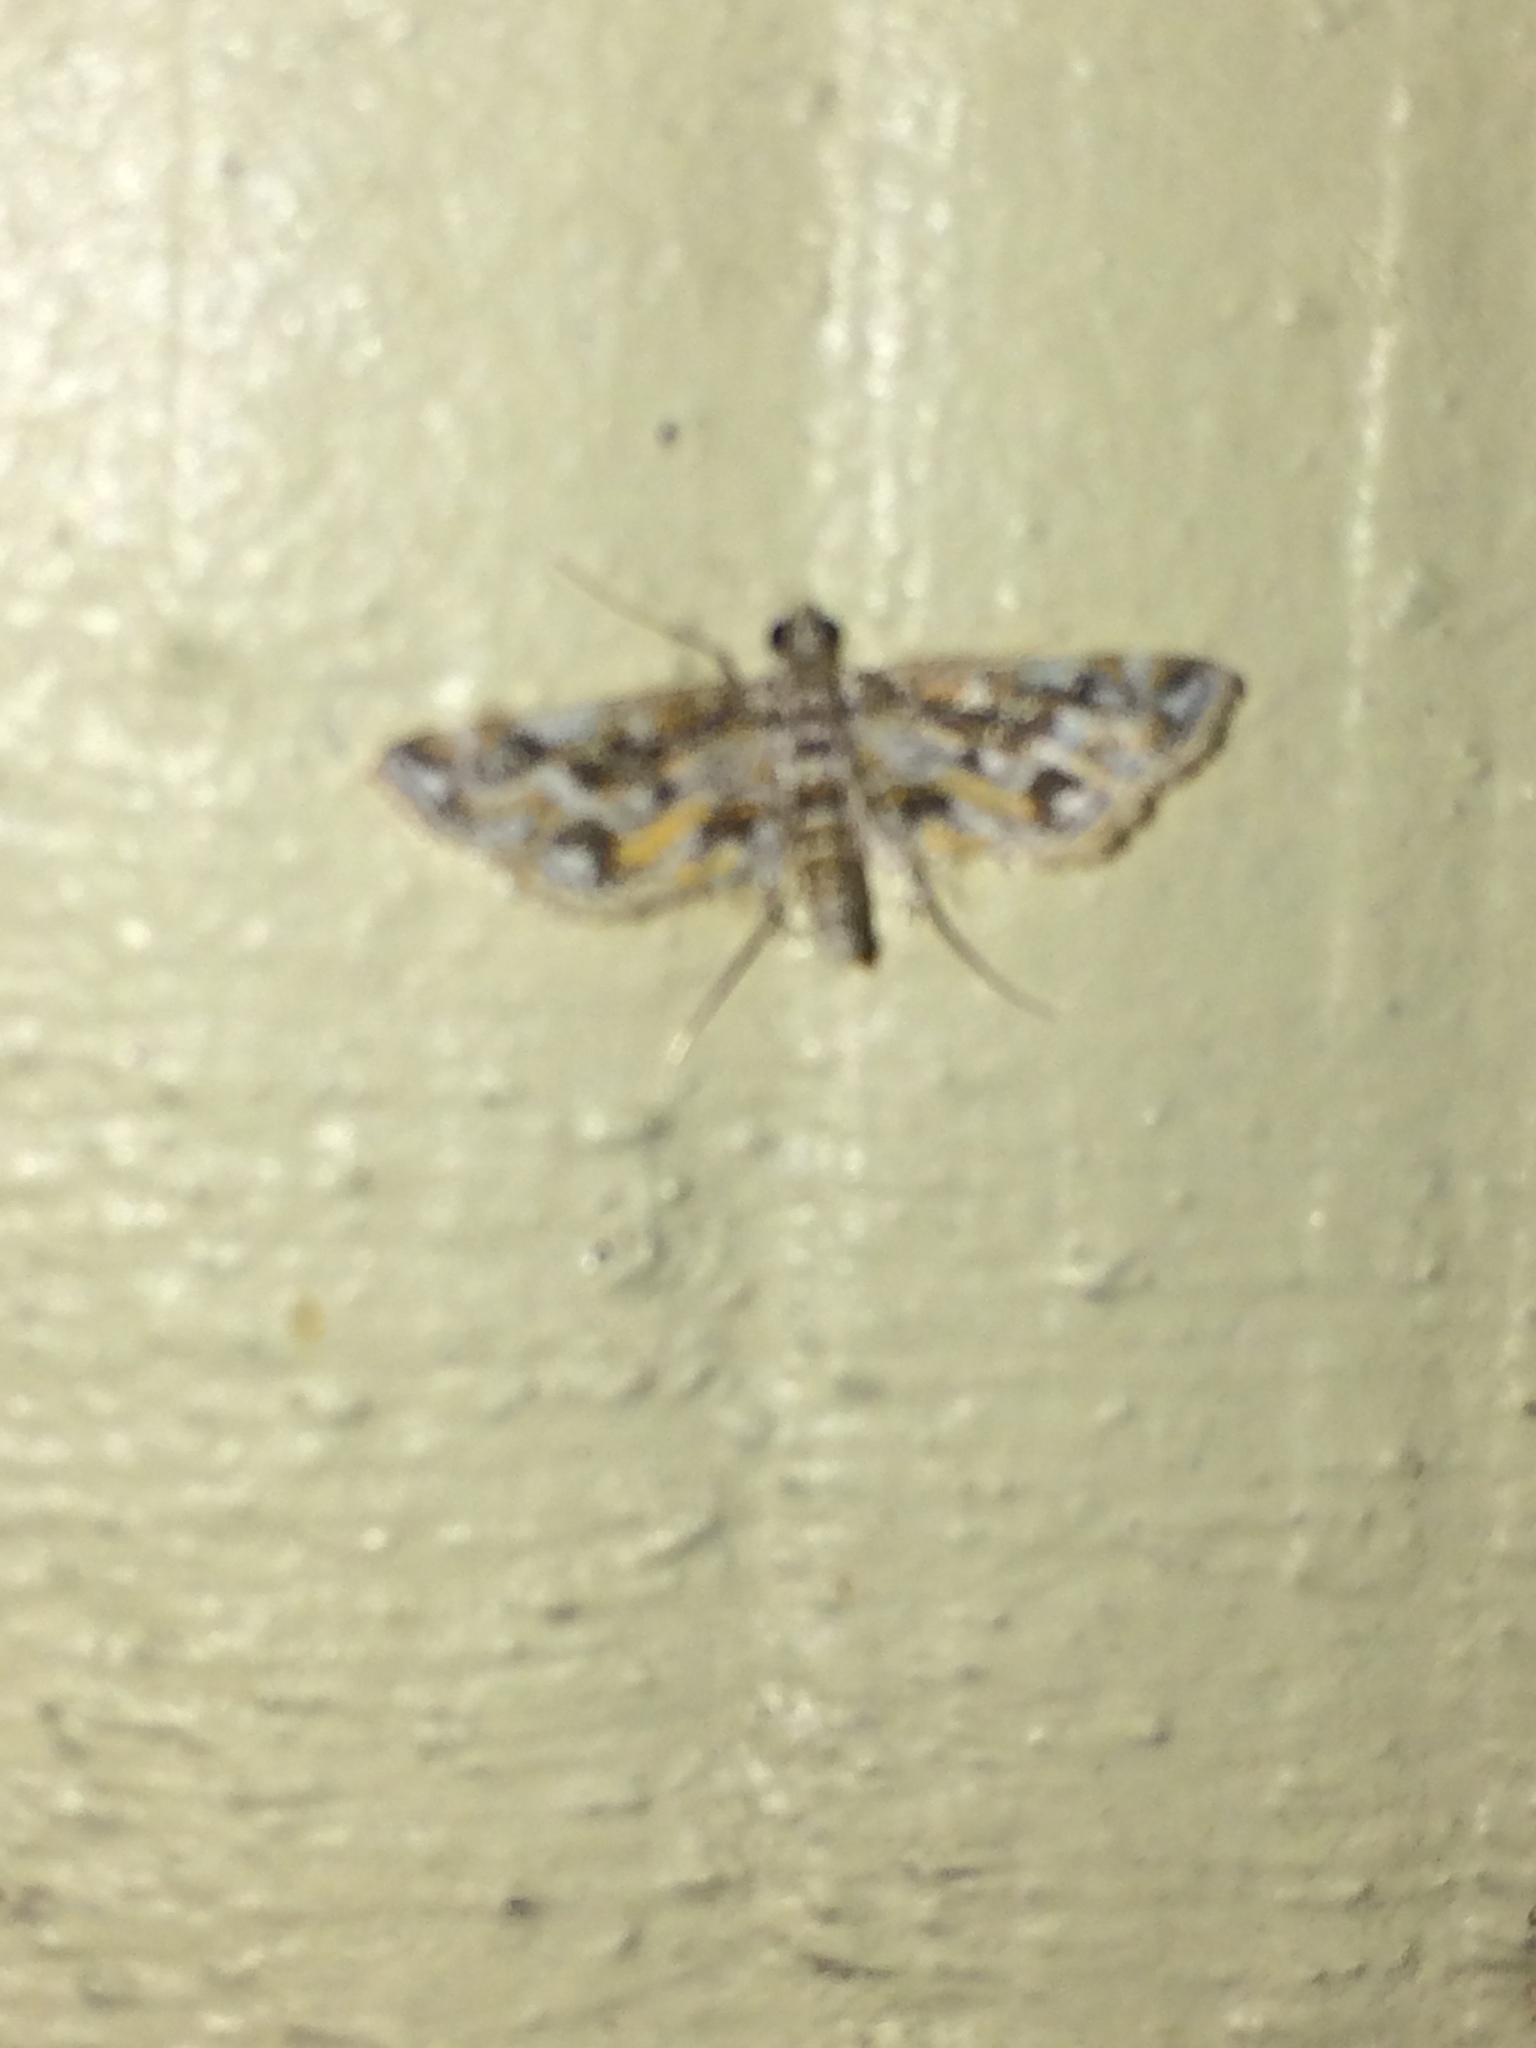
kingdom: Animalia
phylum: Arthropoda
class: Insecta
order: Lepidoptera
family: Crambidae
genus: Parapoynx
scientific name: Parapoynx diminutalis
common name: Hydrilla leafcutter
